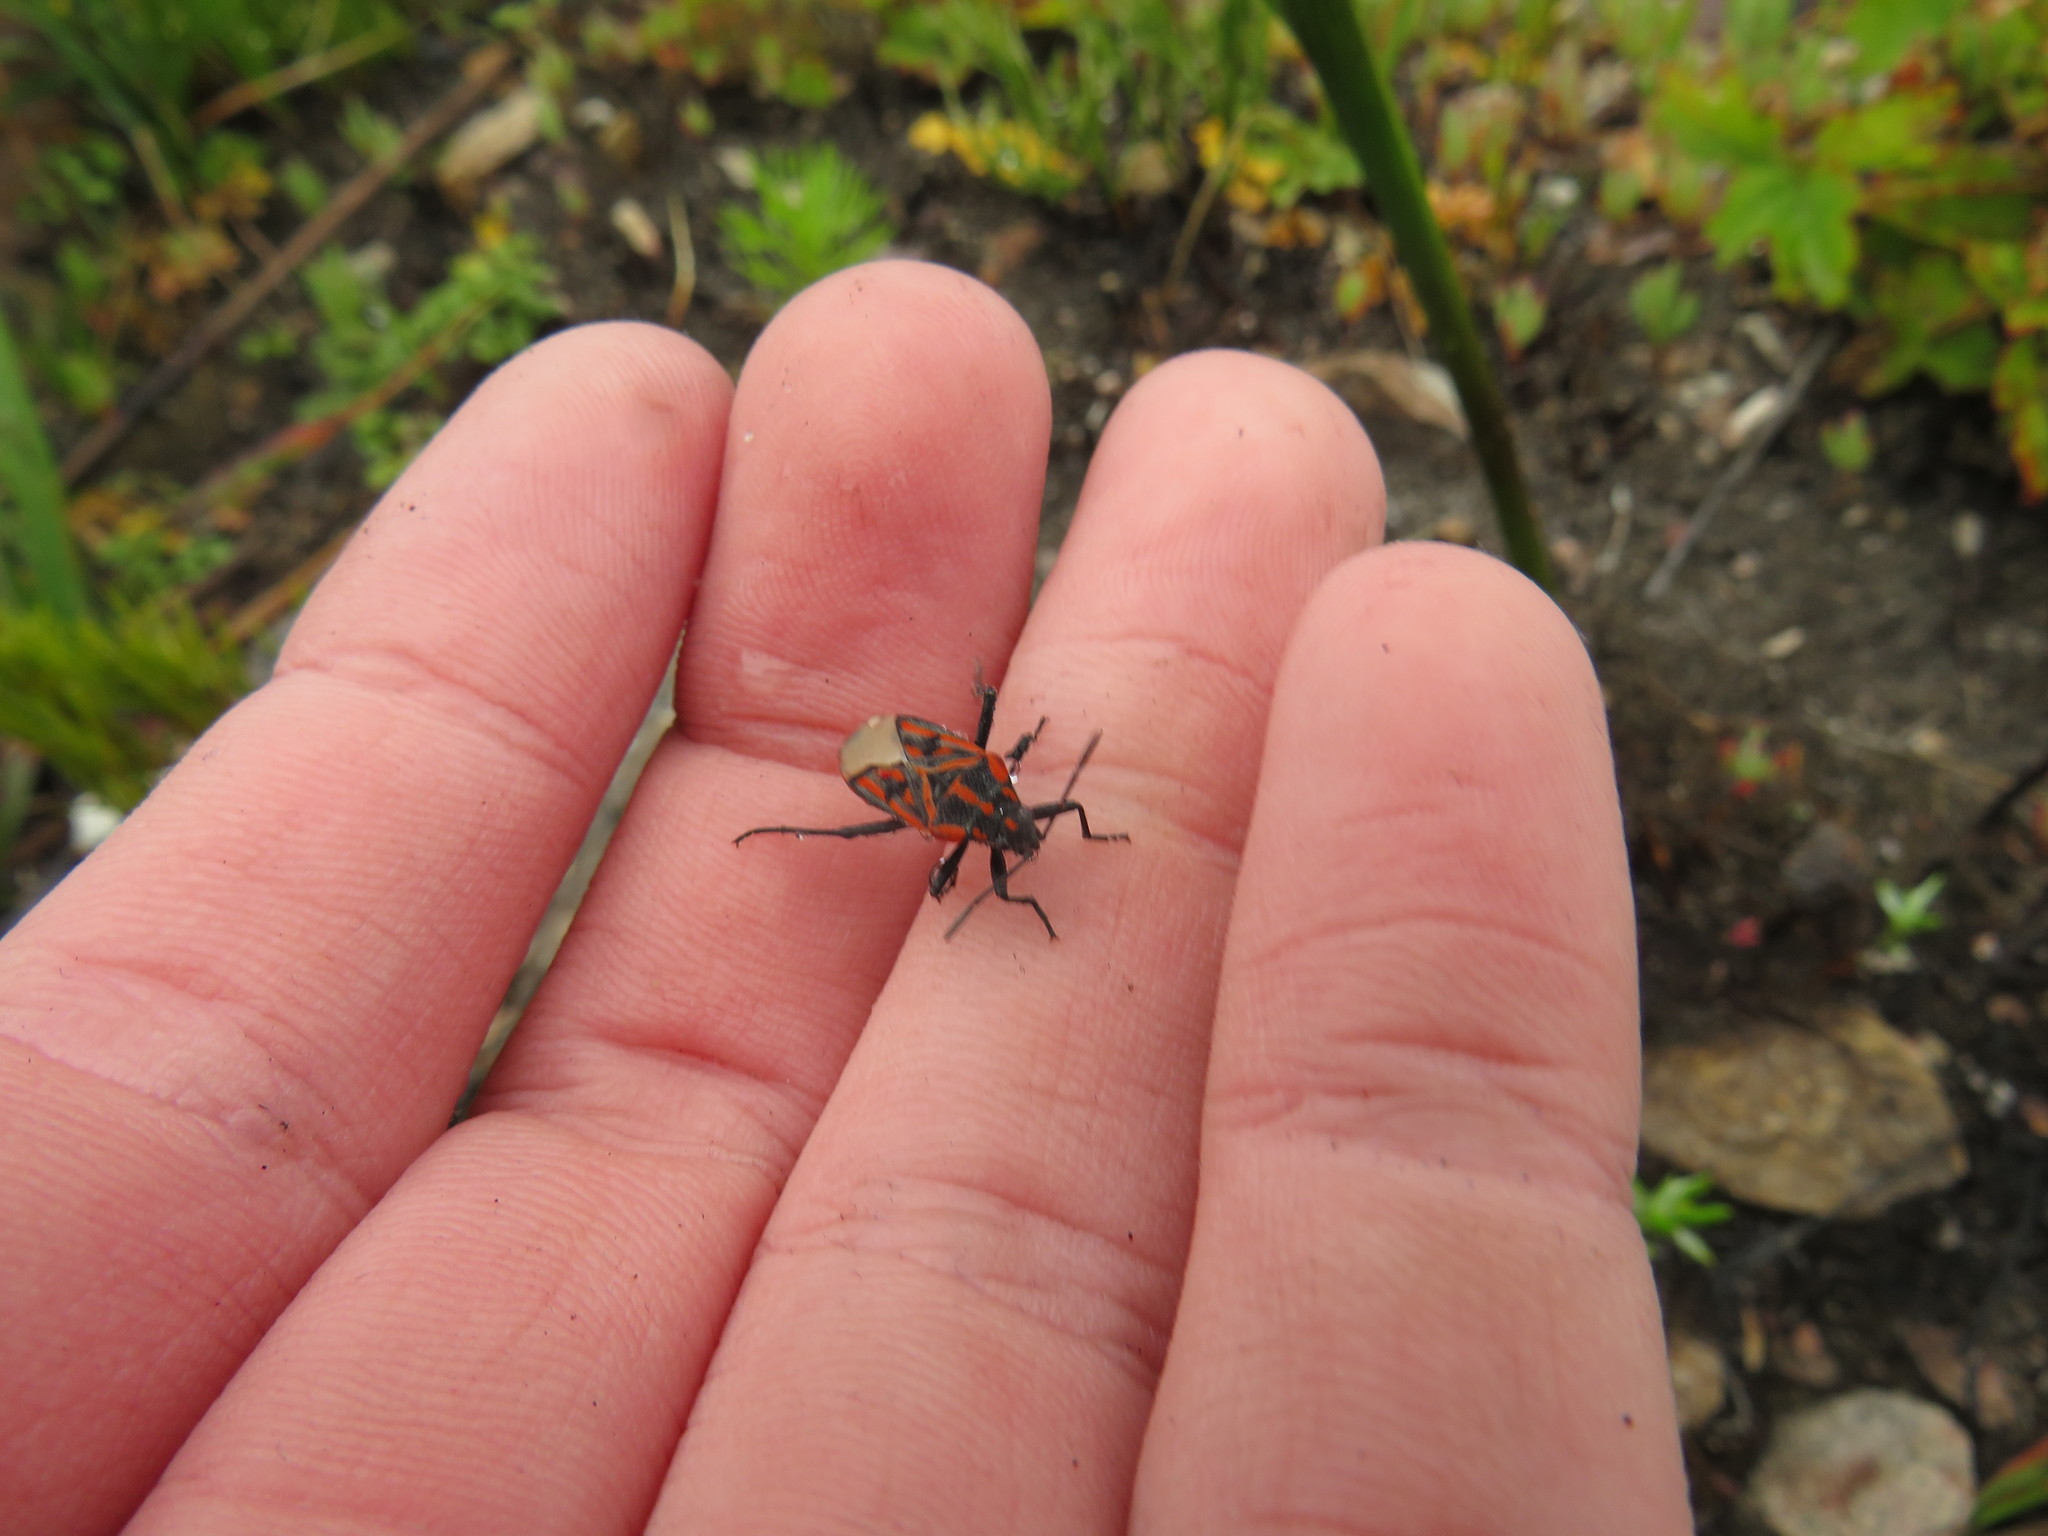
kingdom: Animalia
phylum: Arthropoda
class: Insecta
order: Hemiptera
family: Lygaeidae
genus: Spilostethus
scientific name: Spilostethus crudelis
